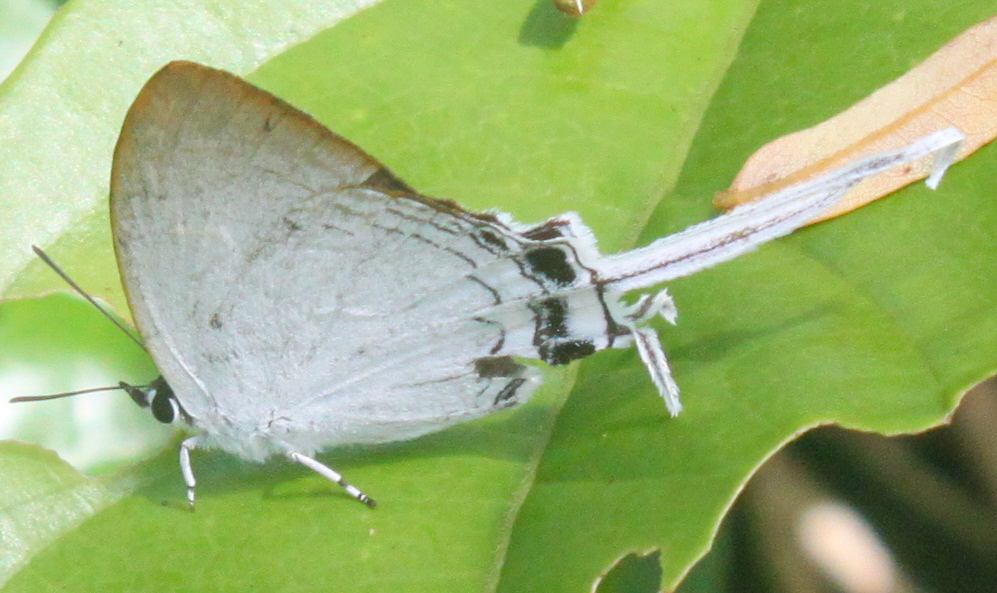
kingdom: Animalia
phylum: Arthropoda
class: Insecta
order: Lepidoptera
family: Lycaenidae
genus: Cheritra
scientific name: Cheritra freja
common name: Common imperial
